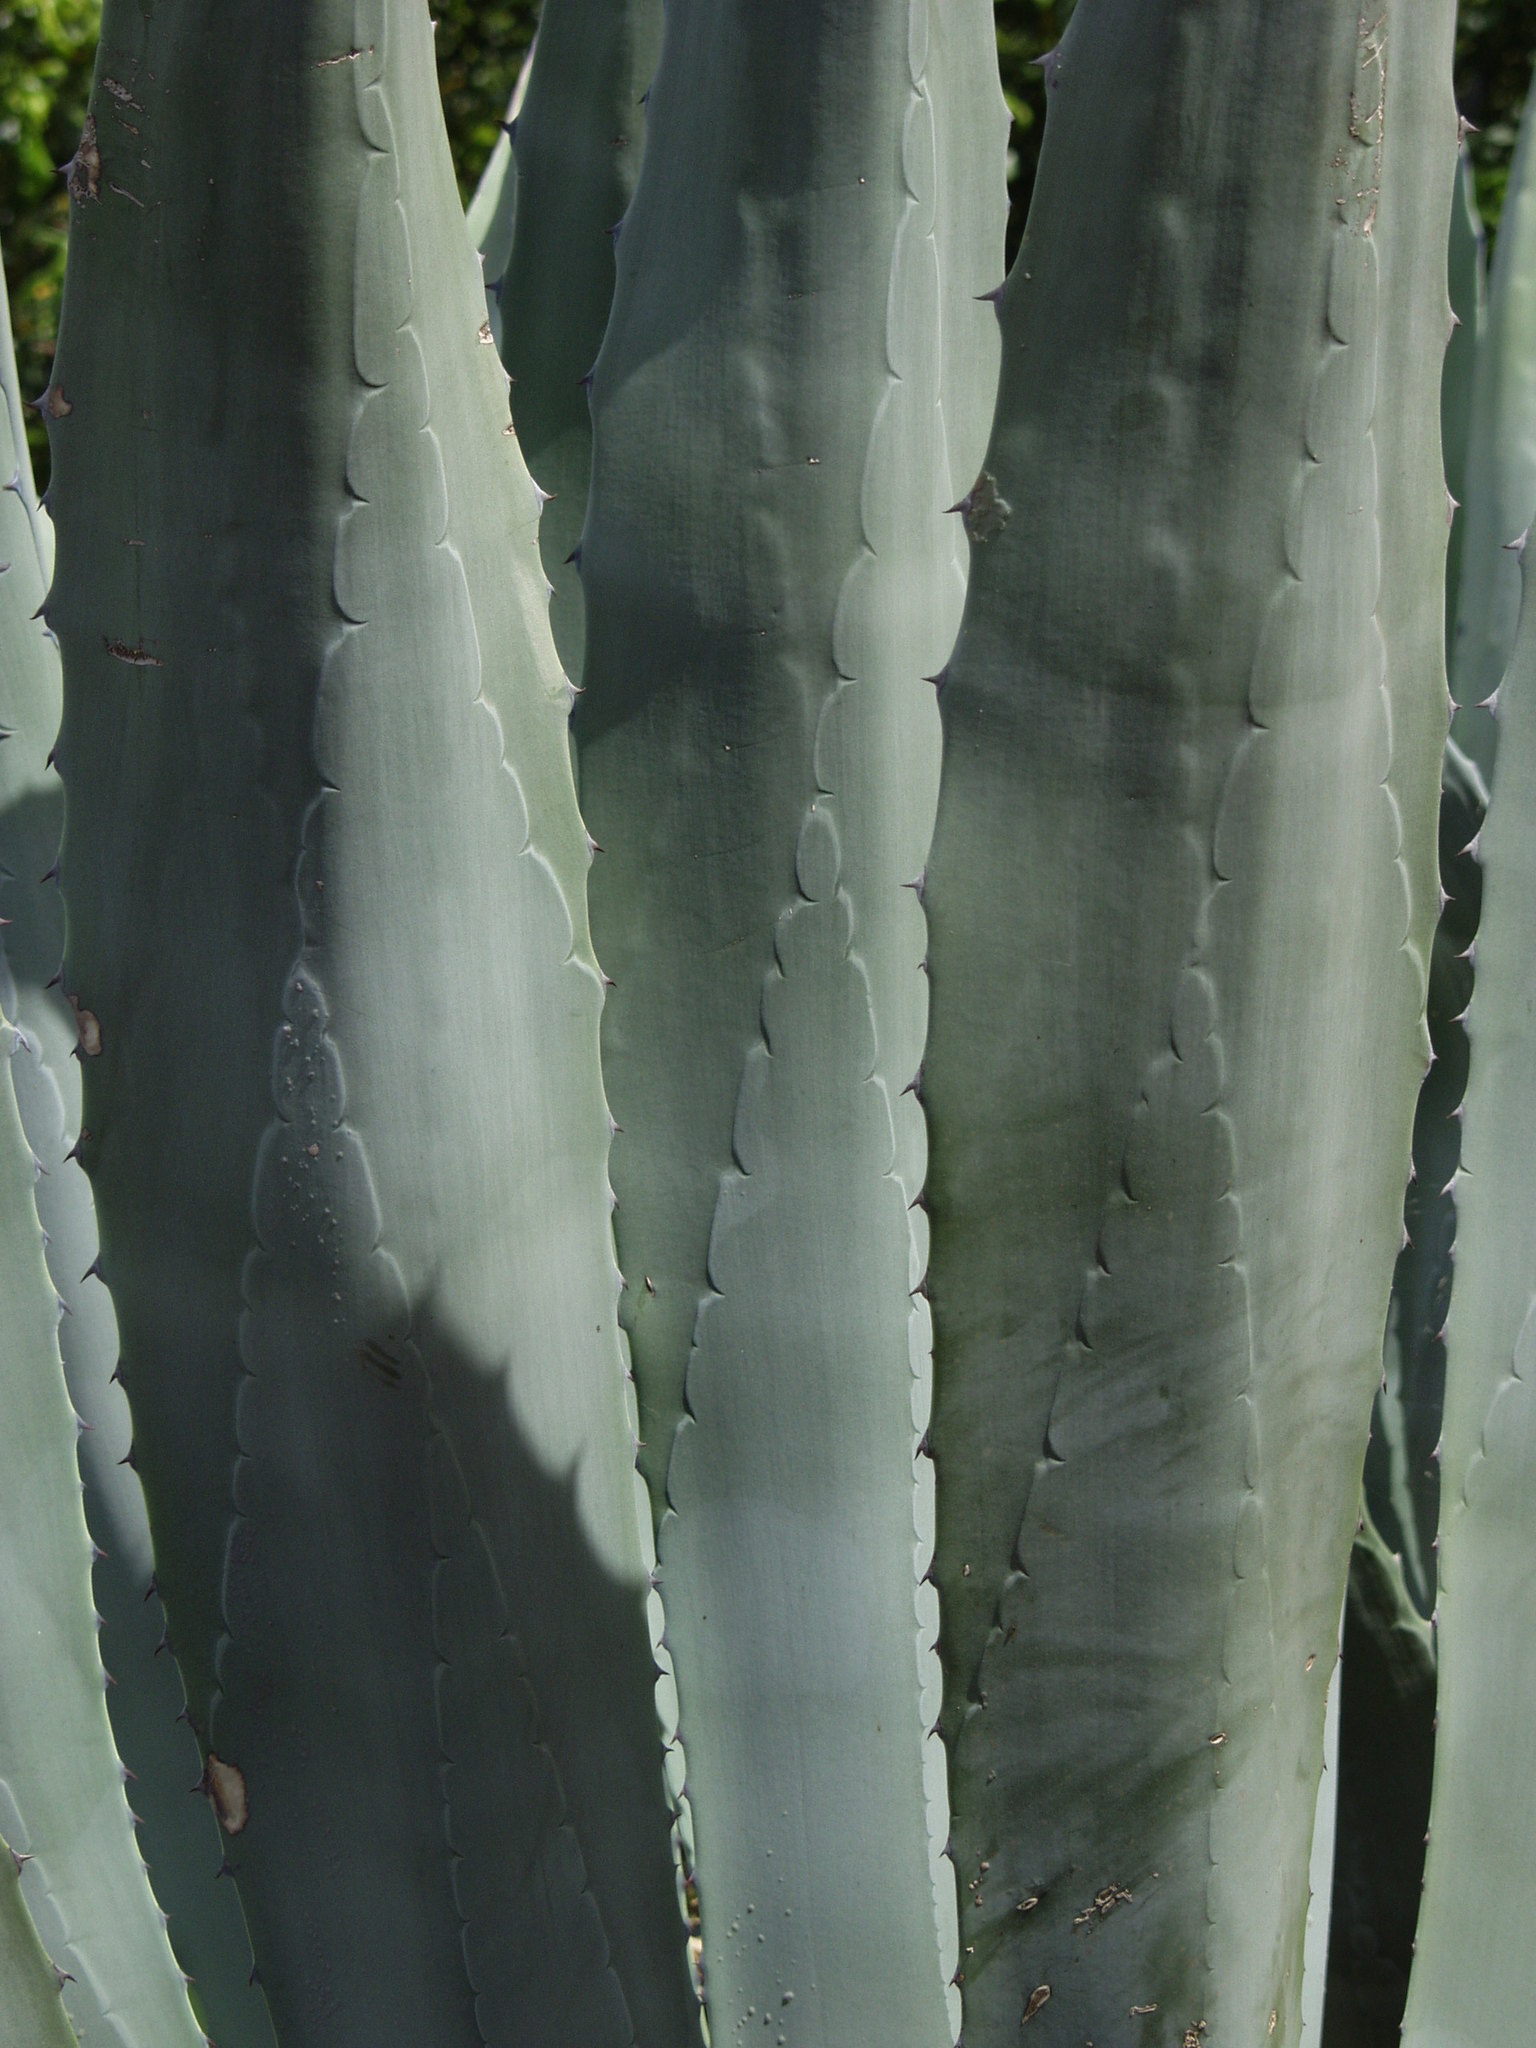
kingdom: Plantae
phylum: Tracheophyta
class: Liliopsida
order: Asparagales
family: Asparagaceae
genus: Agave
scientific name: Agave americana
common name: Centuryplant
